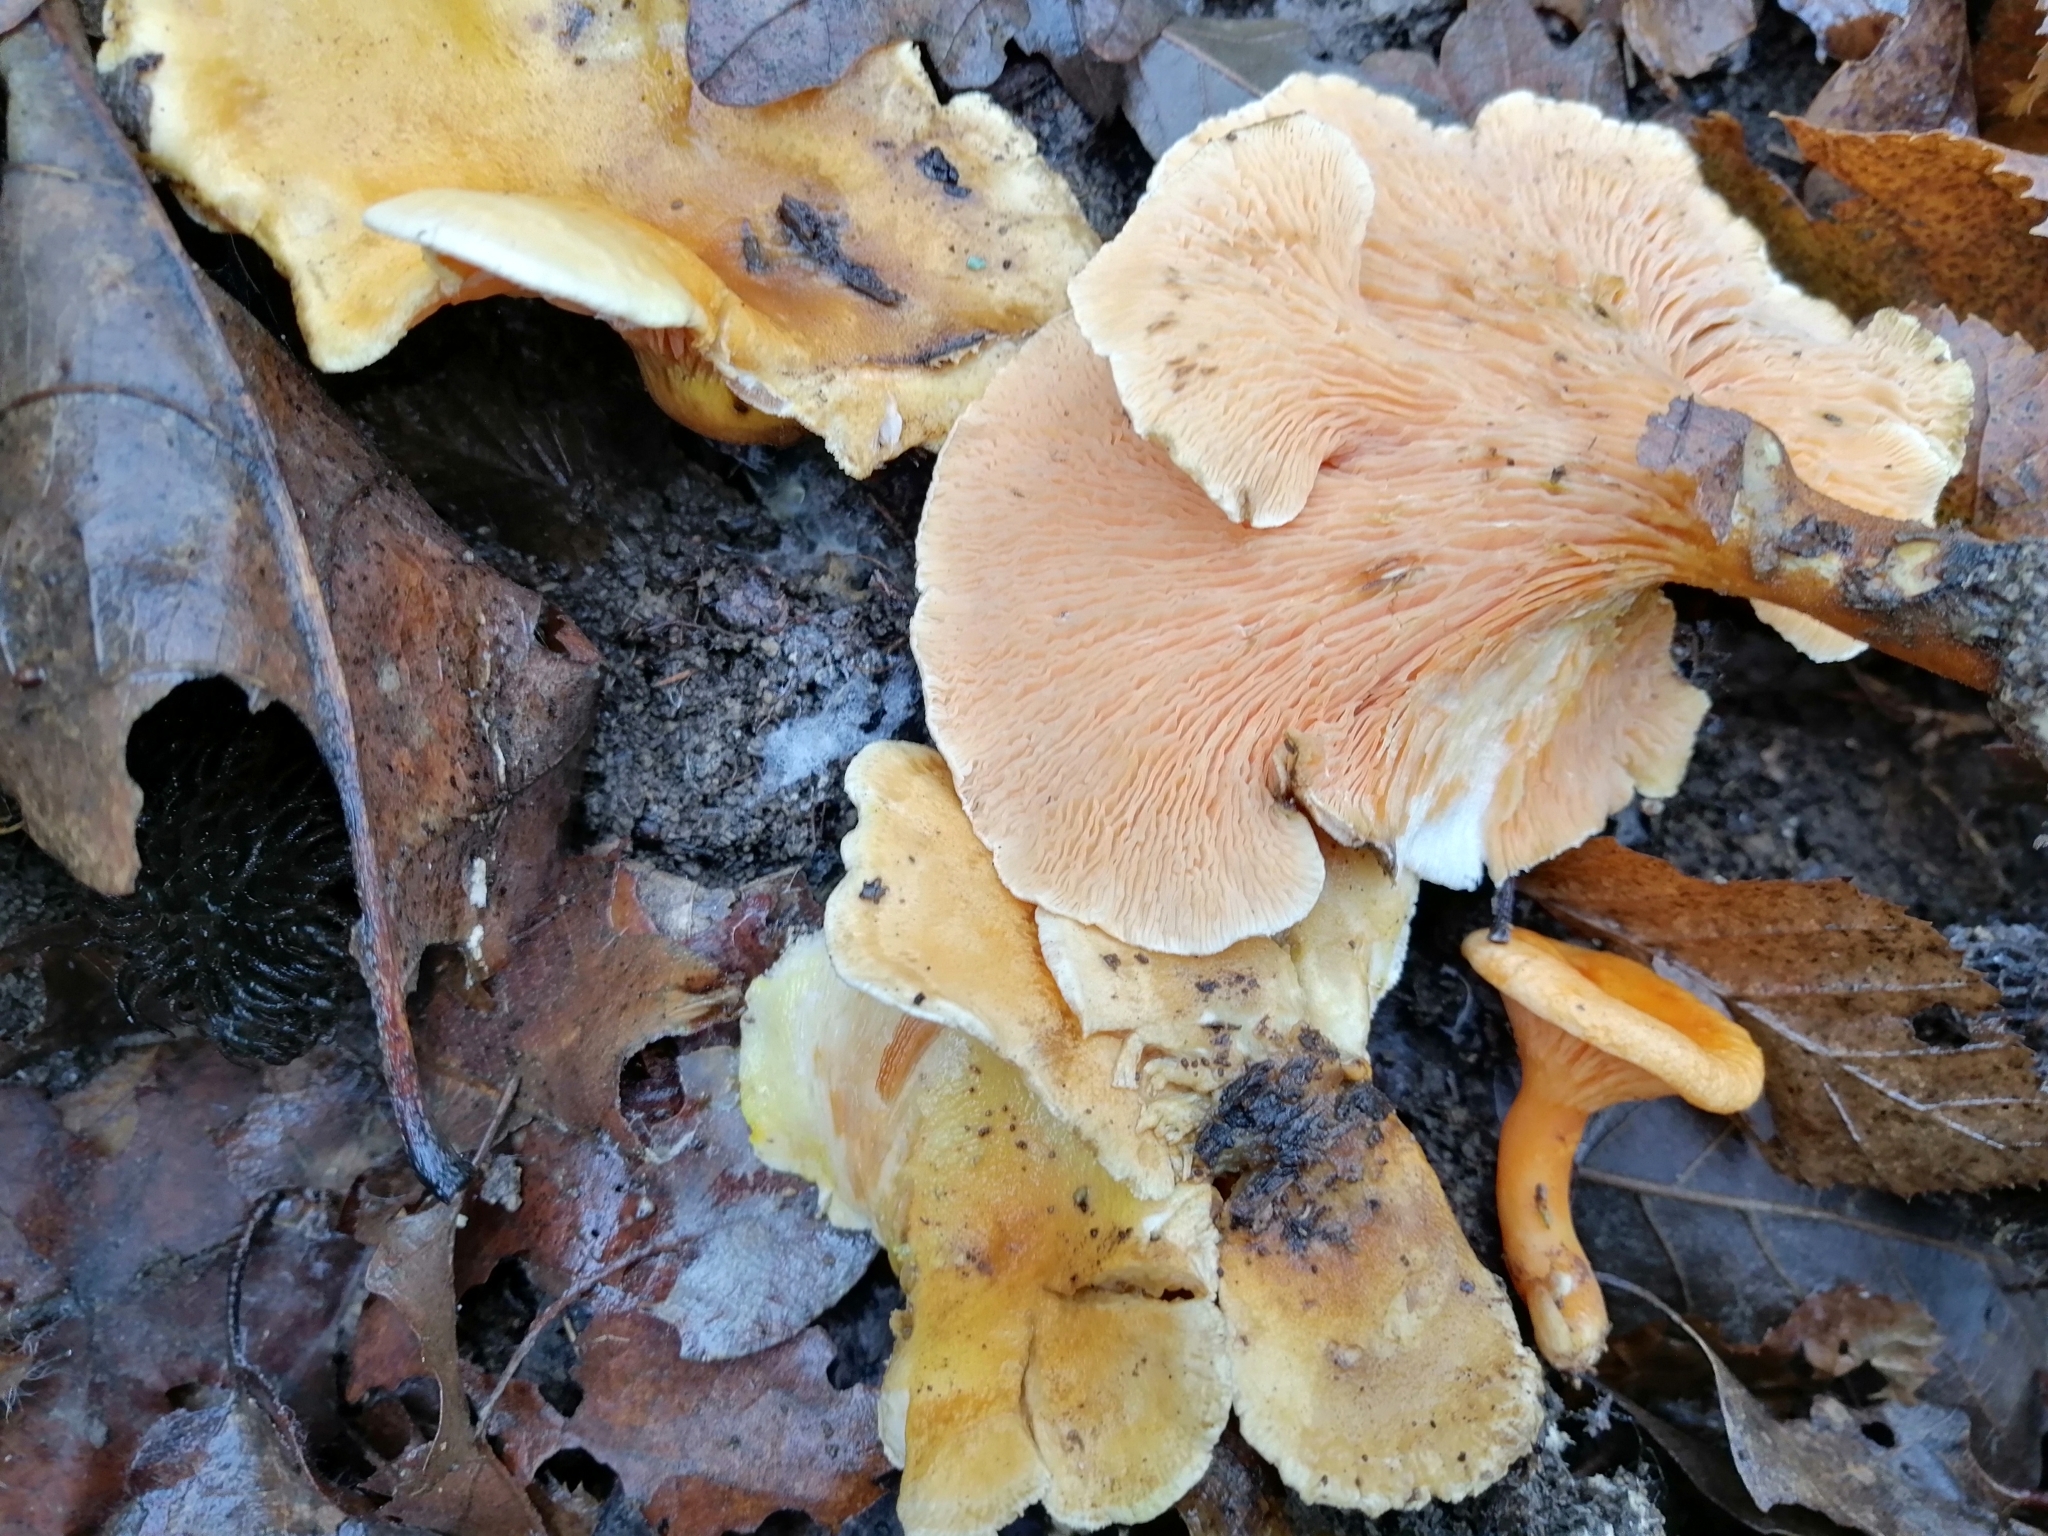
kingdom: Fungi
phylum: Basidiomycota
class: Agaricomycetes
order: Boletales
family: Hygrophoropsidaceae
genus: Hygrophoropsis
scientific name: Hygrophoropsis aurantiaca
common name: False chanterelle
